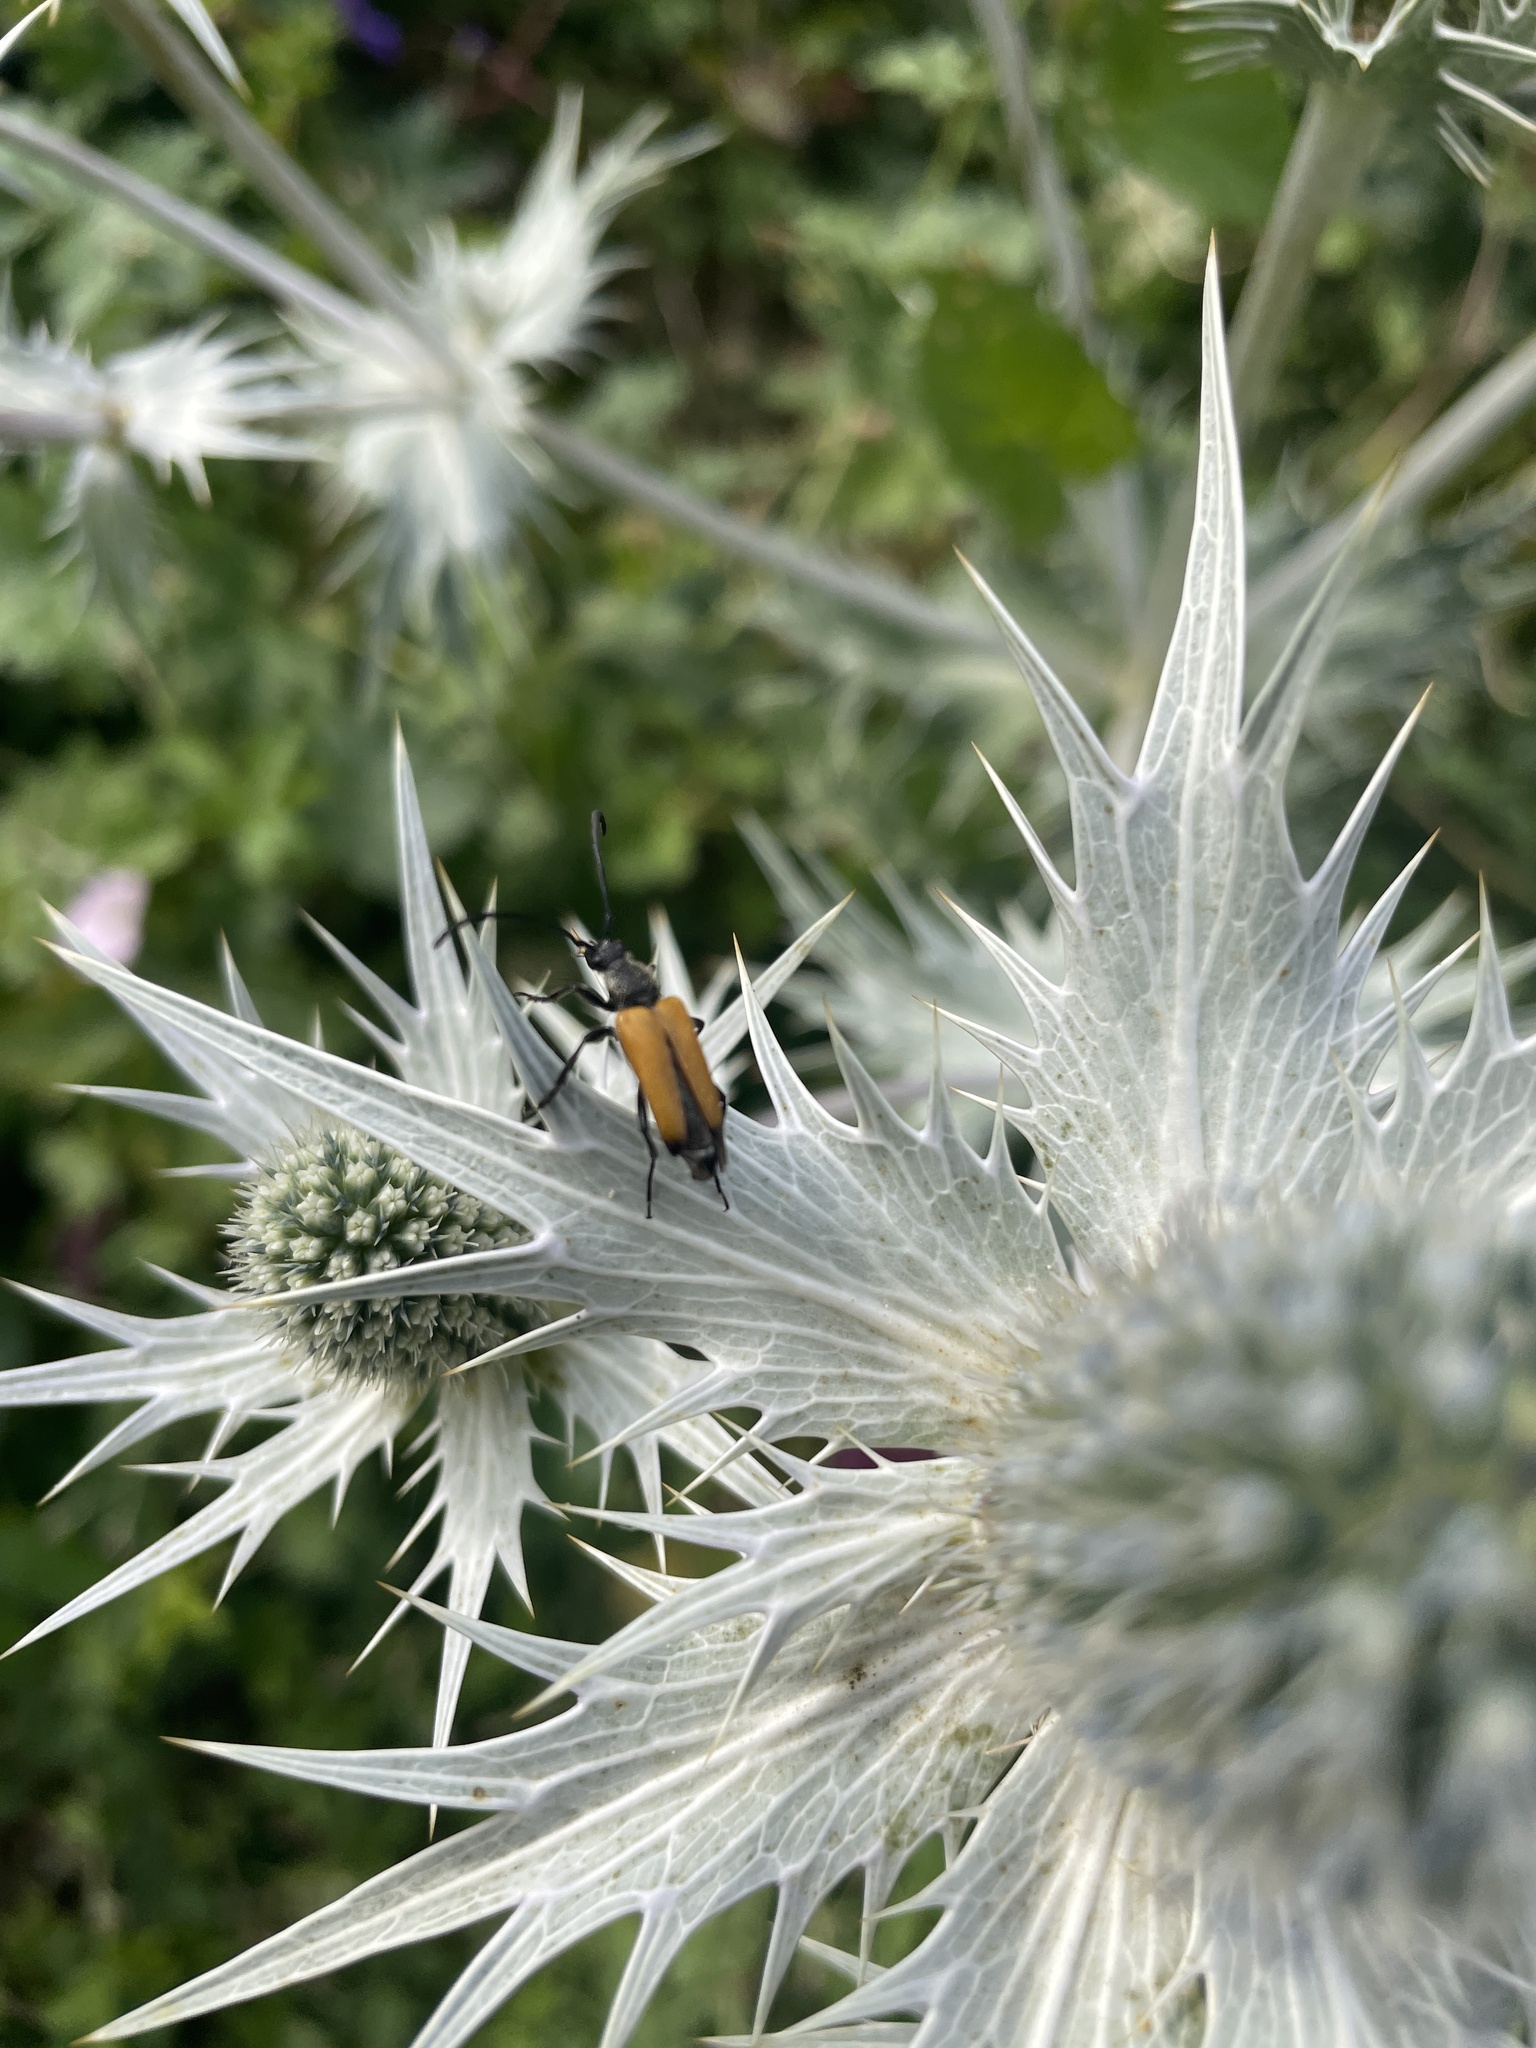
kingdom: Animalia
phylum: Arthropoda
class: Insecta
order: Coleoptera
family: Cerambycidae
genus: Paracorymbia
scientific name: Paracorymbia fulva
